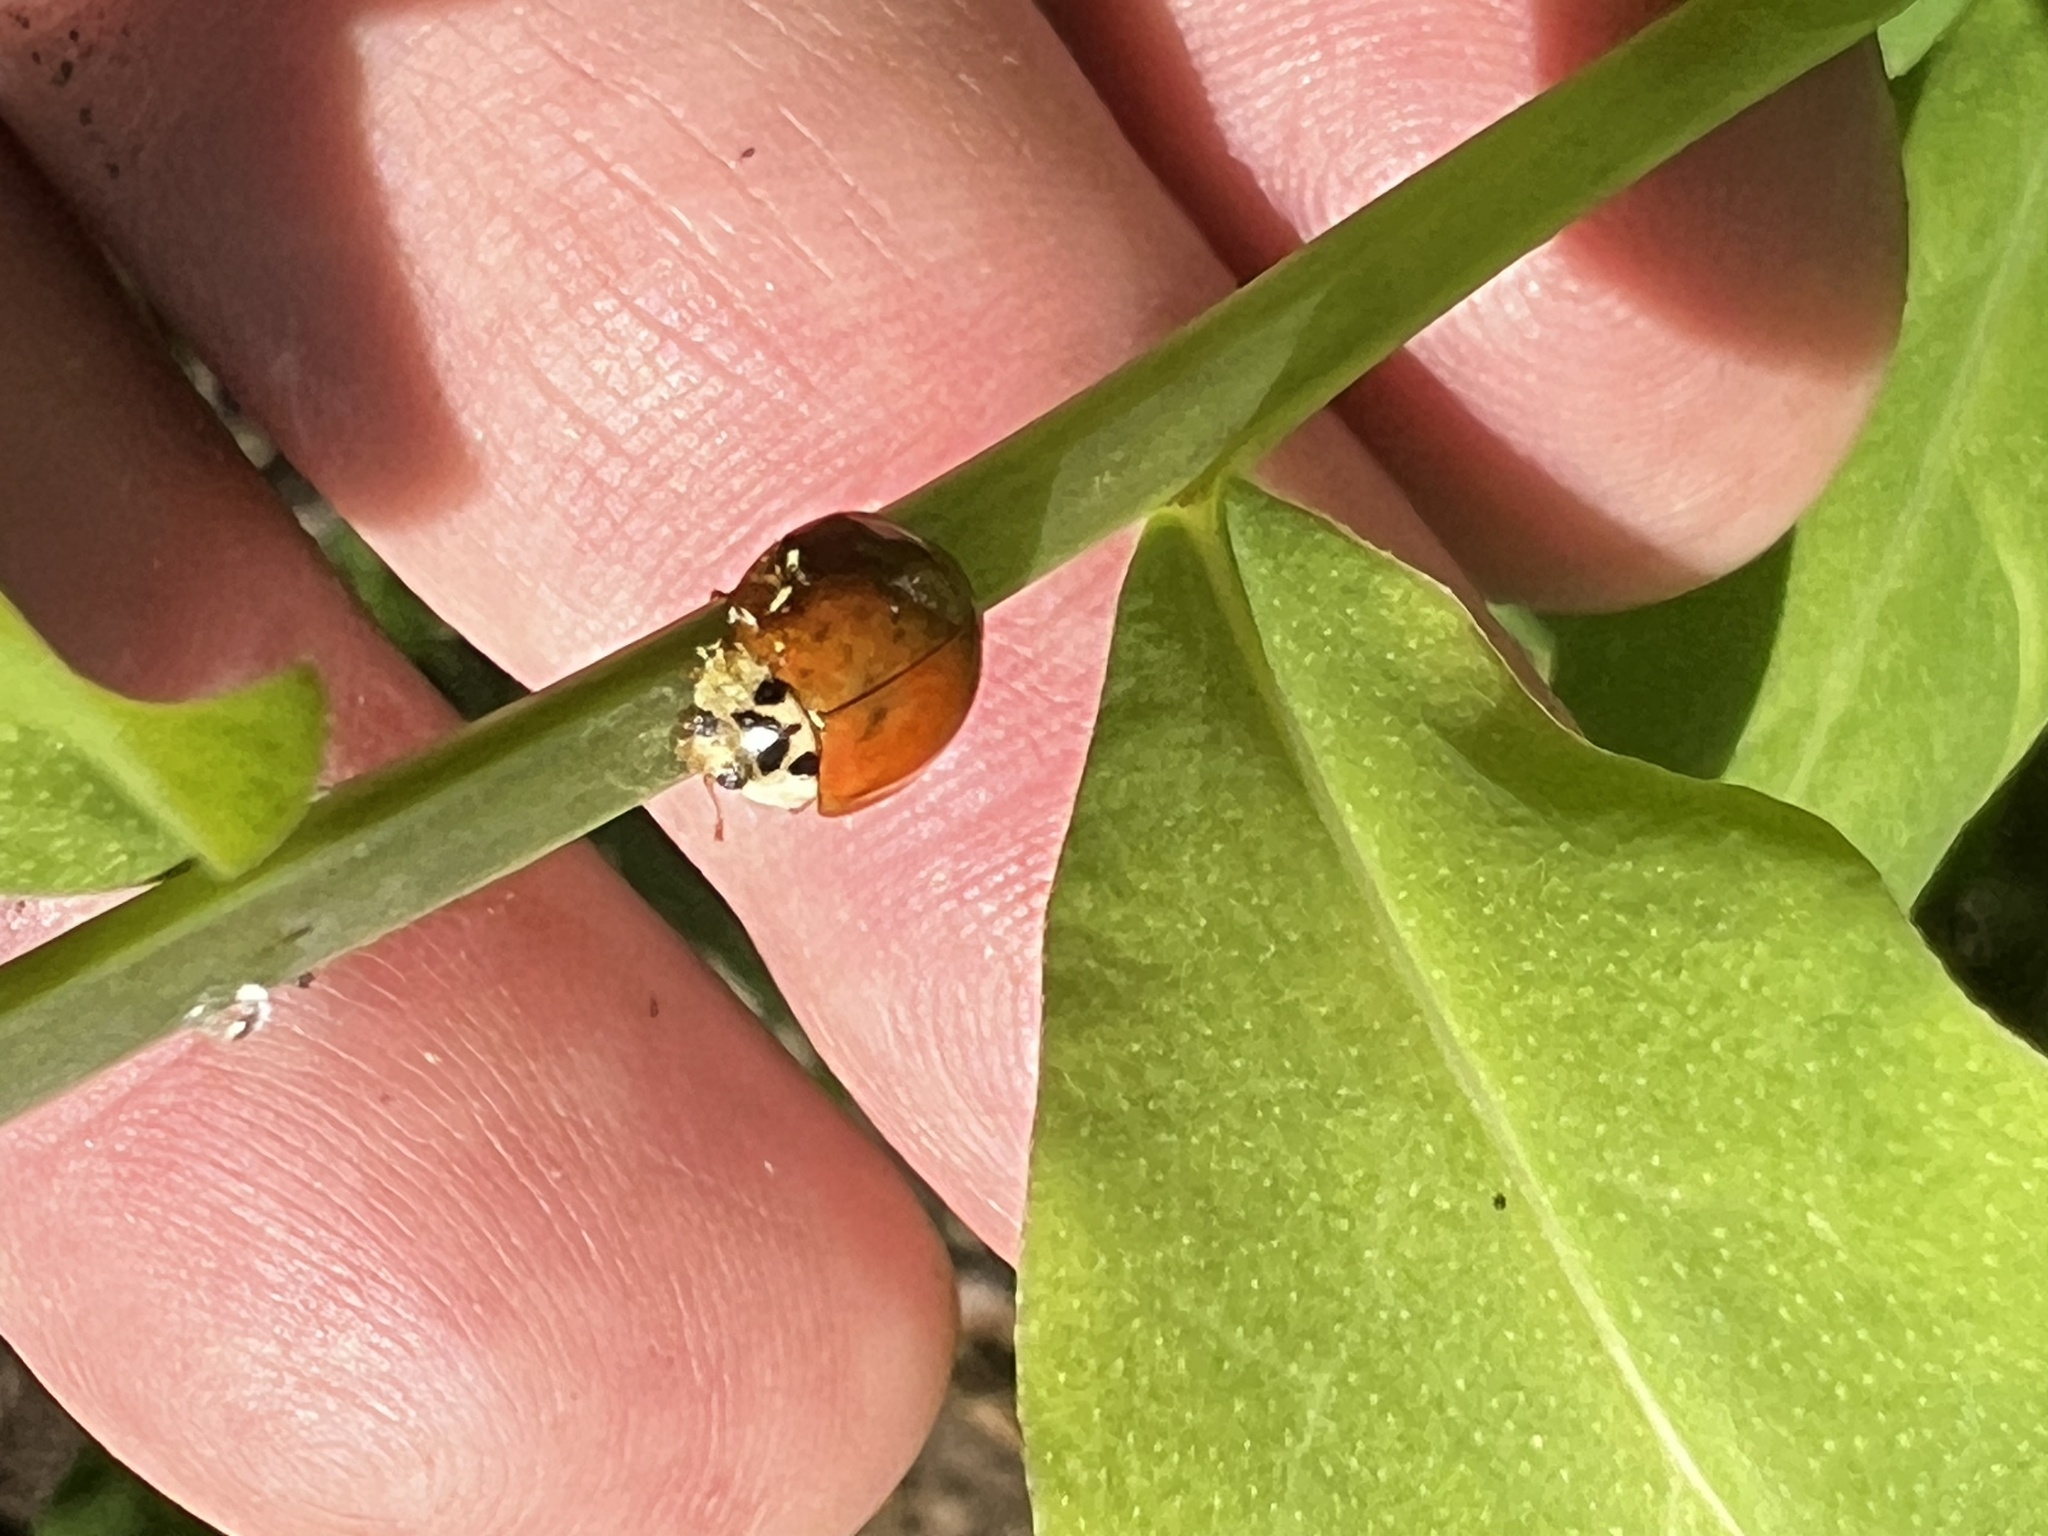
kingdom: Animalia
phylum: Arthropoda
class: Insecta
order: Coleoptera
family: Coccinellidae
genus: Harmonia
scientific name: Harmonia axyridis
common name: Harlequin ladybird
